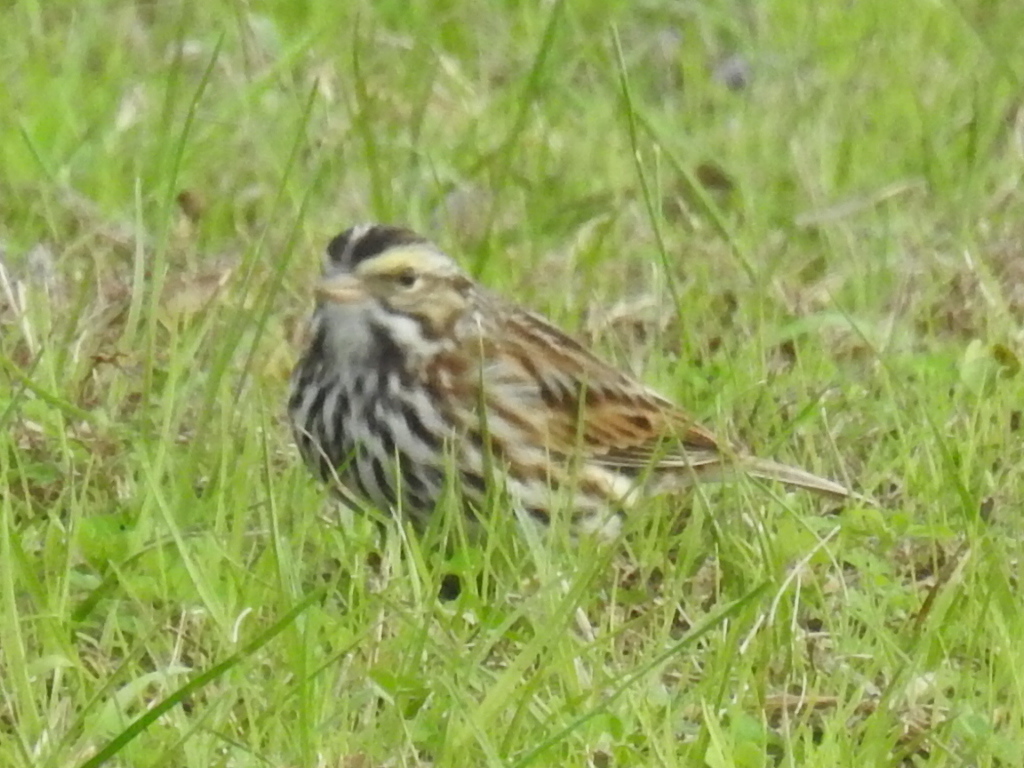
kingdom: Animalia
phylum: Chordata
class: Aves
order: Passeriformes
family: Passerellidae
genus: Passerculus
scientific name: Passerculus sandwichensis
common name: Savannah sparrow
